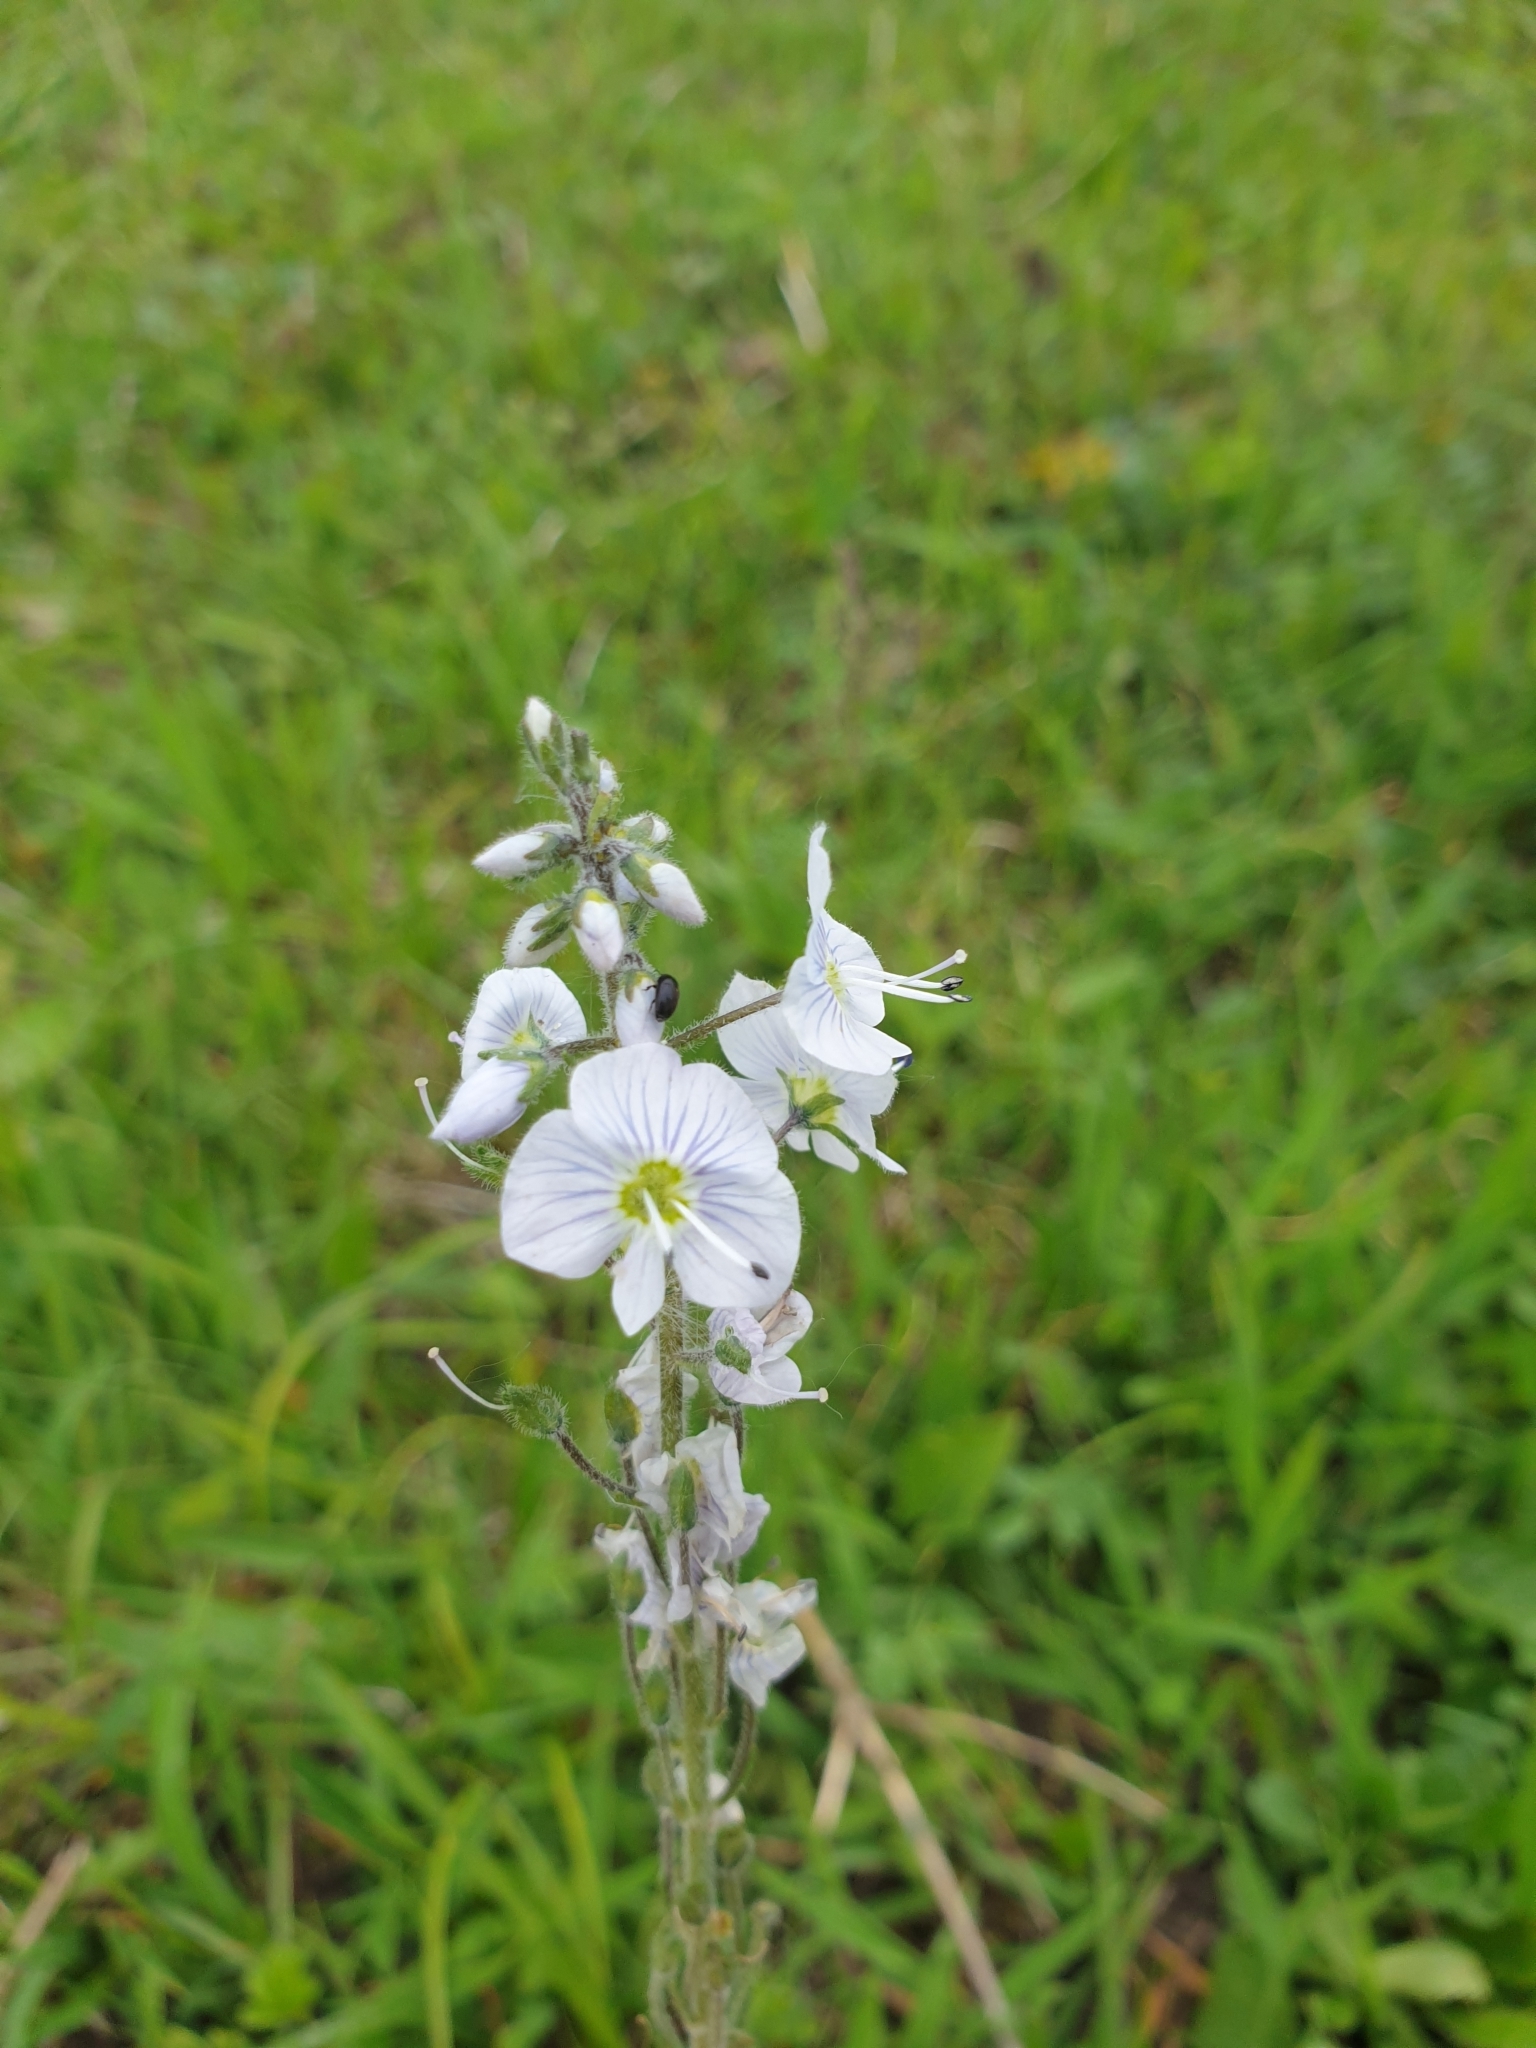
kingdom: Plantae
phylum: Tracheophyta
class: Magnoliopsida
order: Lamiales
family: Plantaginaceae
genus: Veronica
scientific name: Veronica gentianoides
